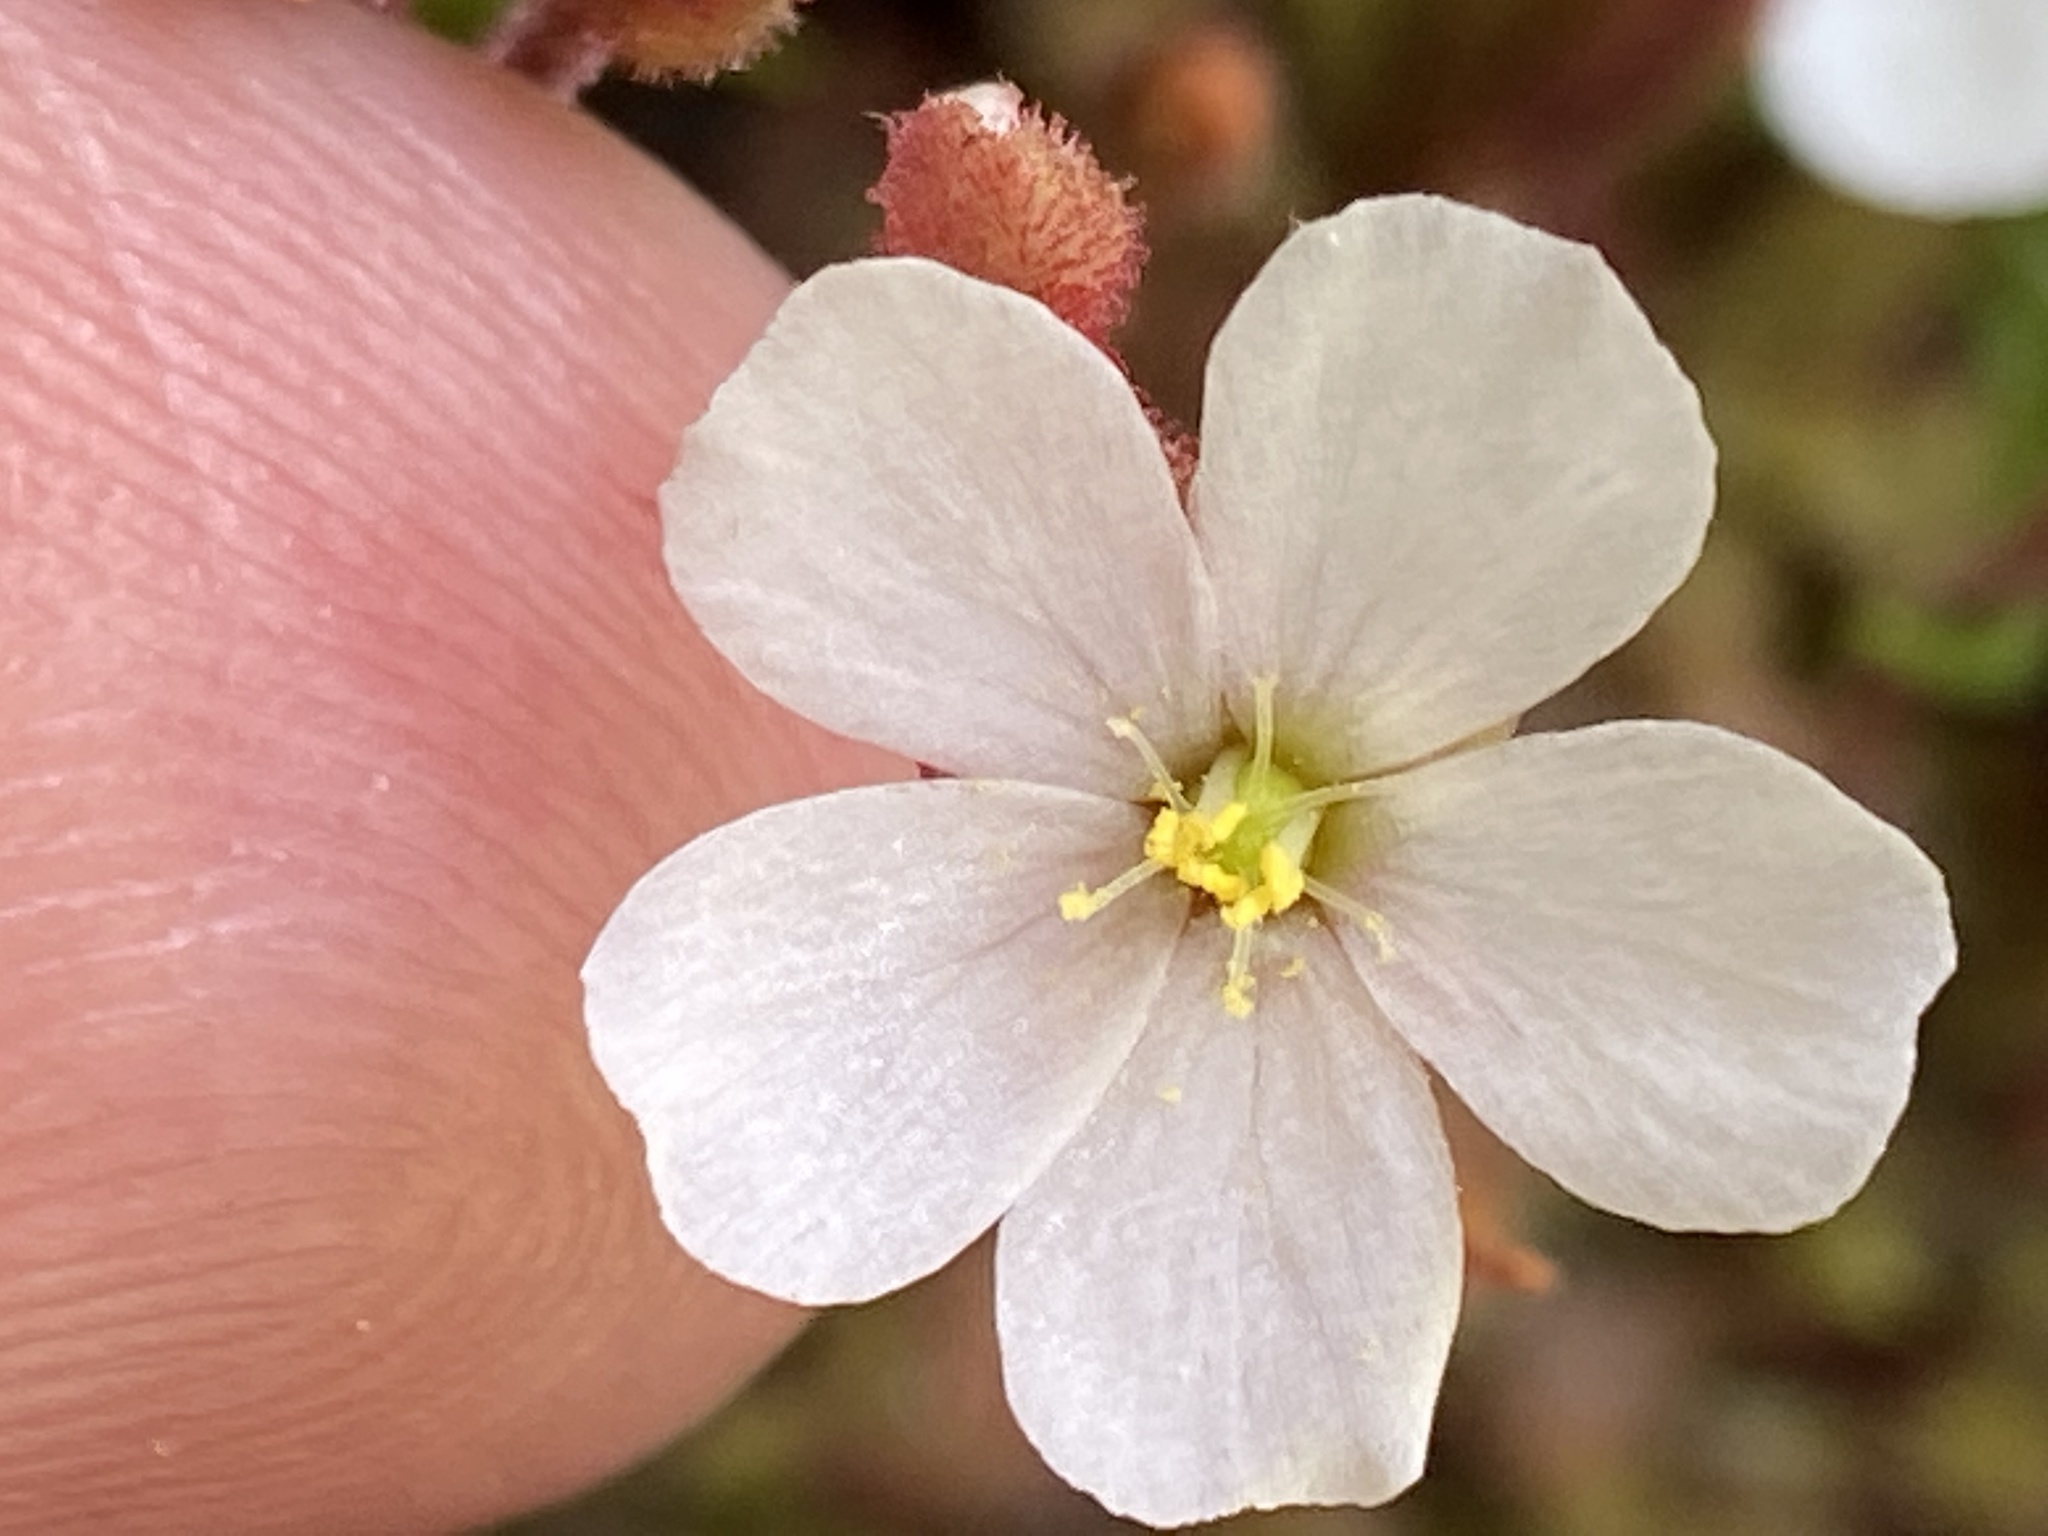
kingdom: Plantae
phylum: Tracheophyta
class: Magnoliopsida
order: Caryophyllales
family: Droseraceae
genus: Drosera
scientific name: Drosera brevifolia
